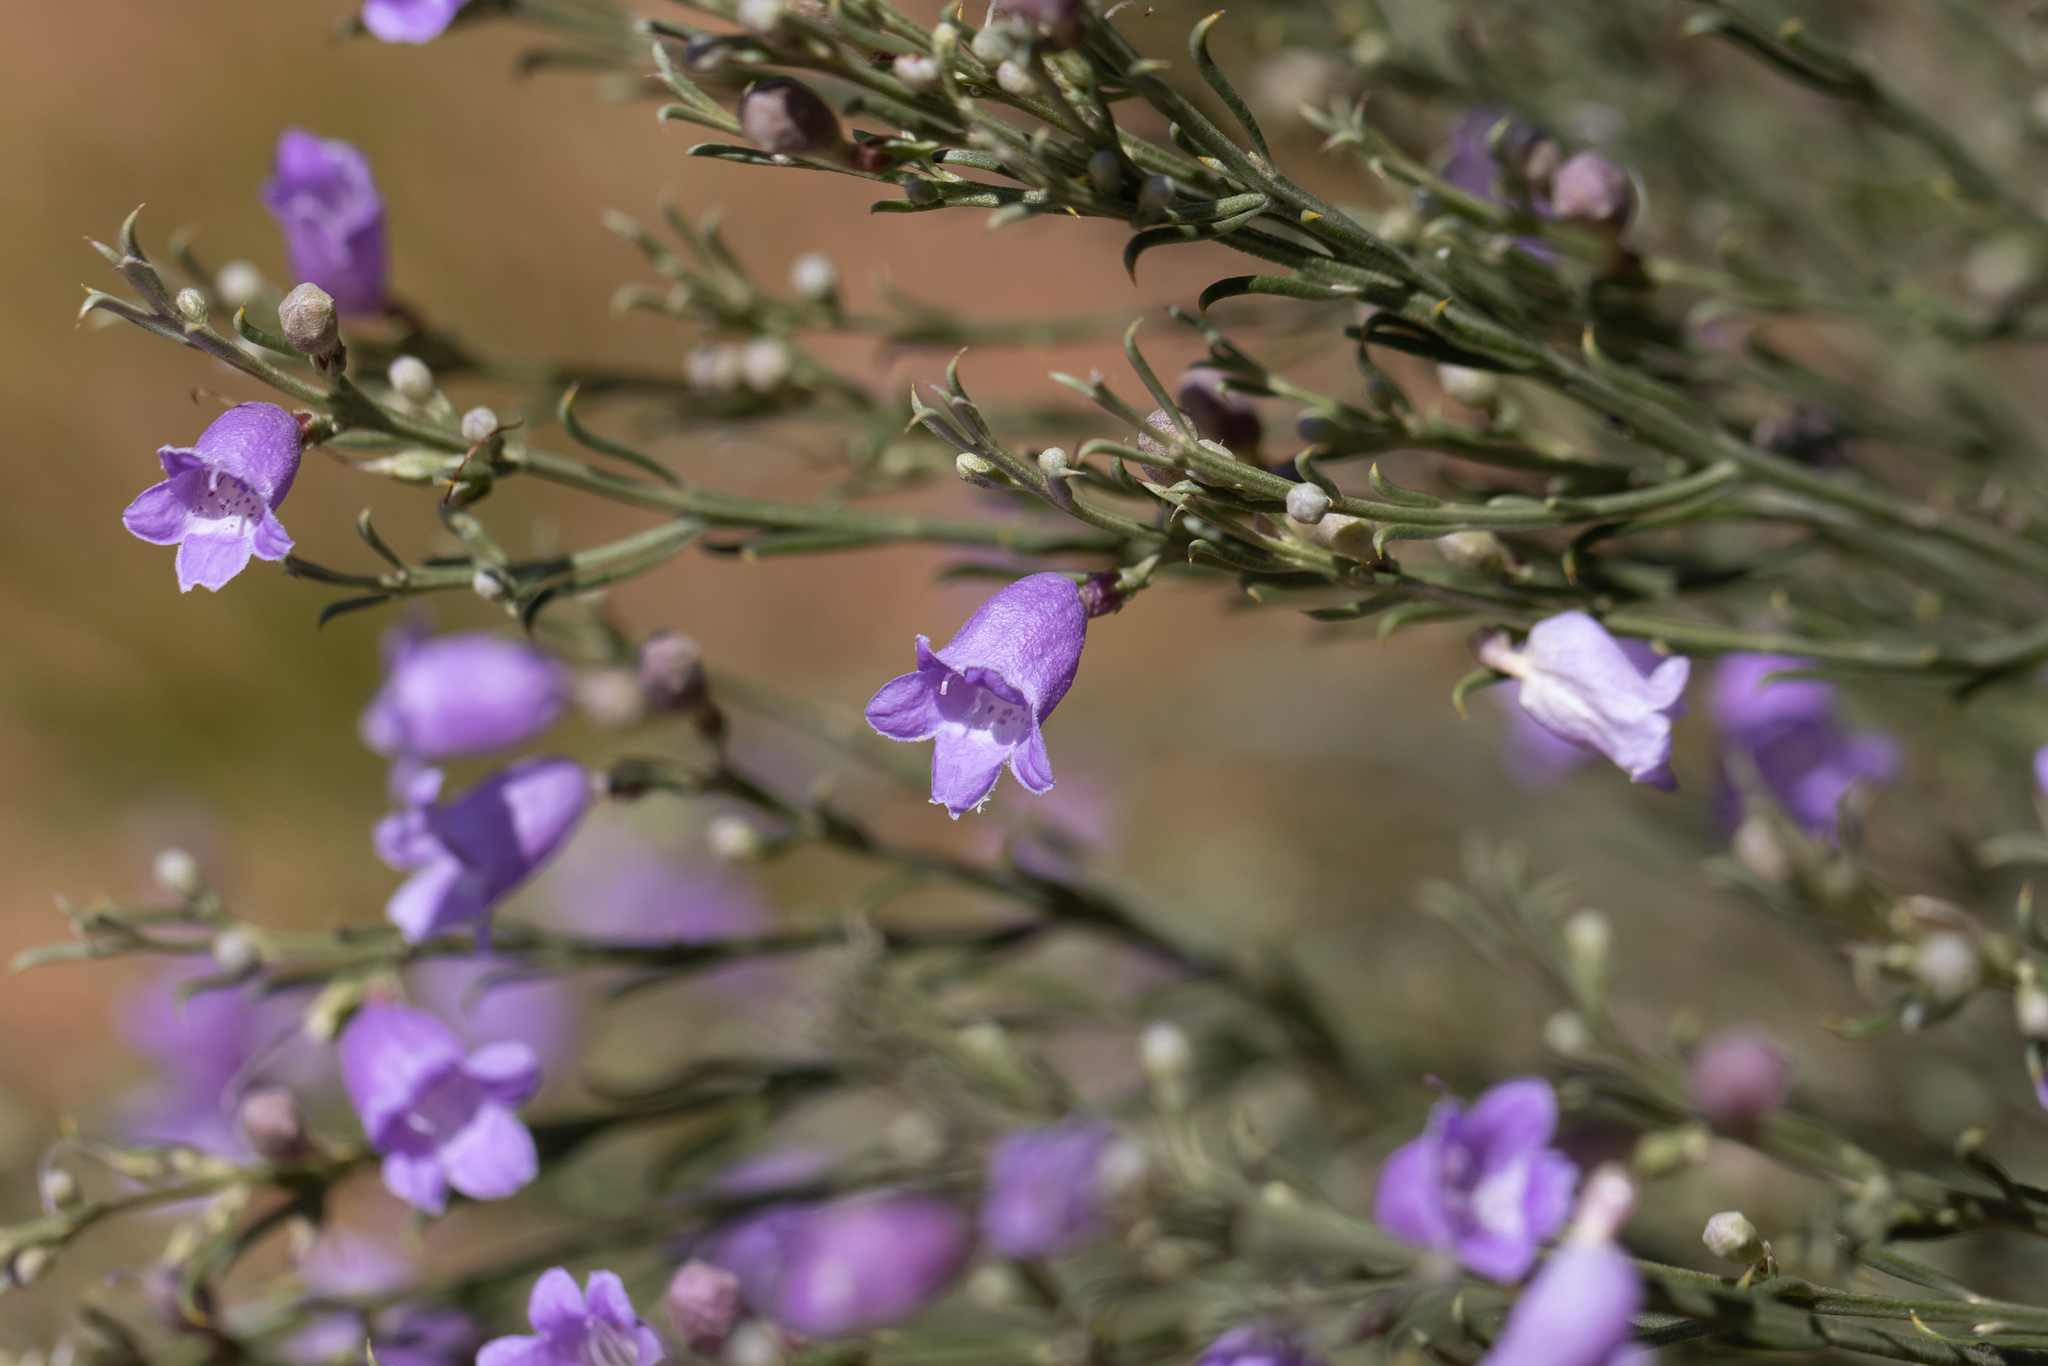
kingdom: Plantae
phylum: Tracheophyta
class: Magnoliopsida
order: Lamiales
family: Scrophulariaceae
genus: Eremophila
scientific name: Eremophila scoparia
